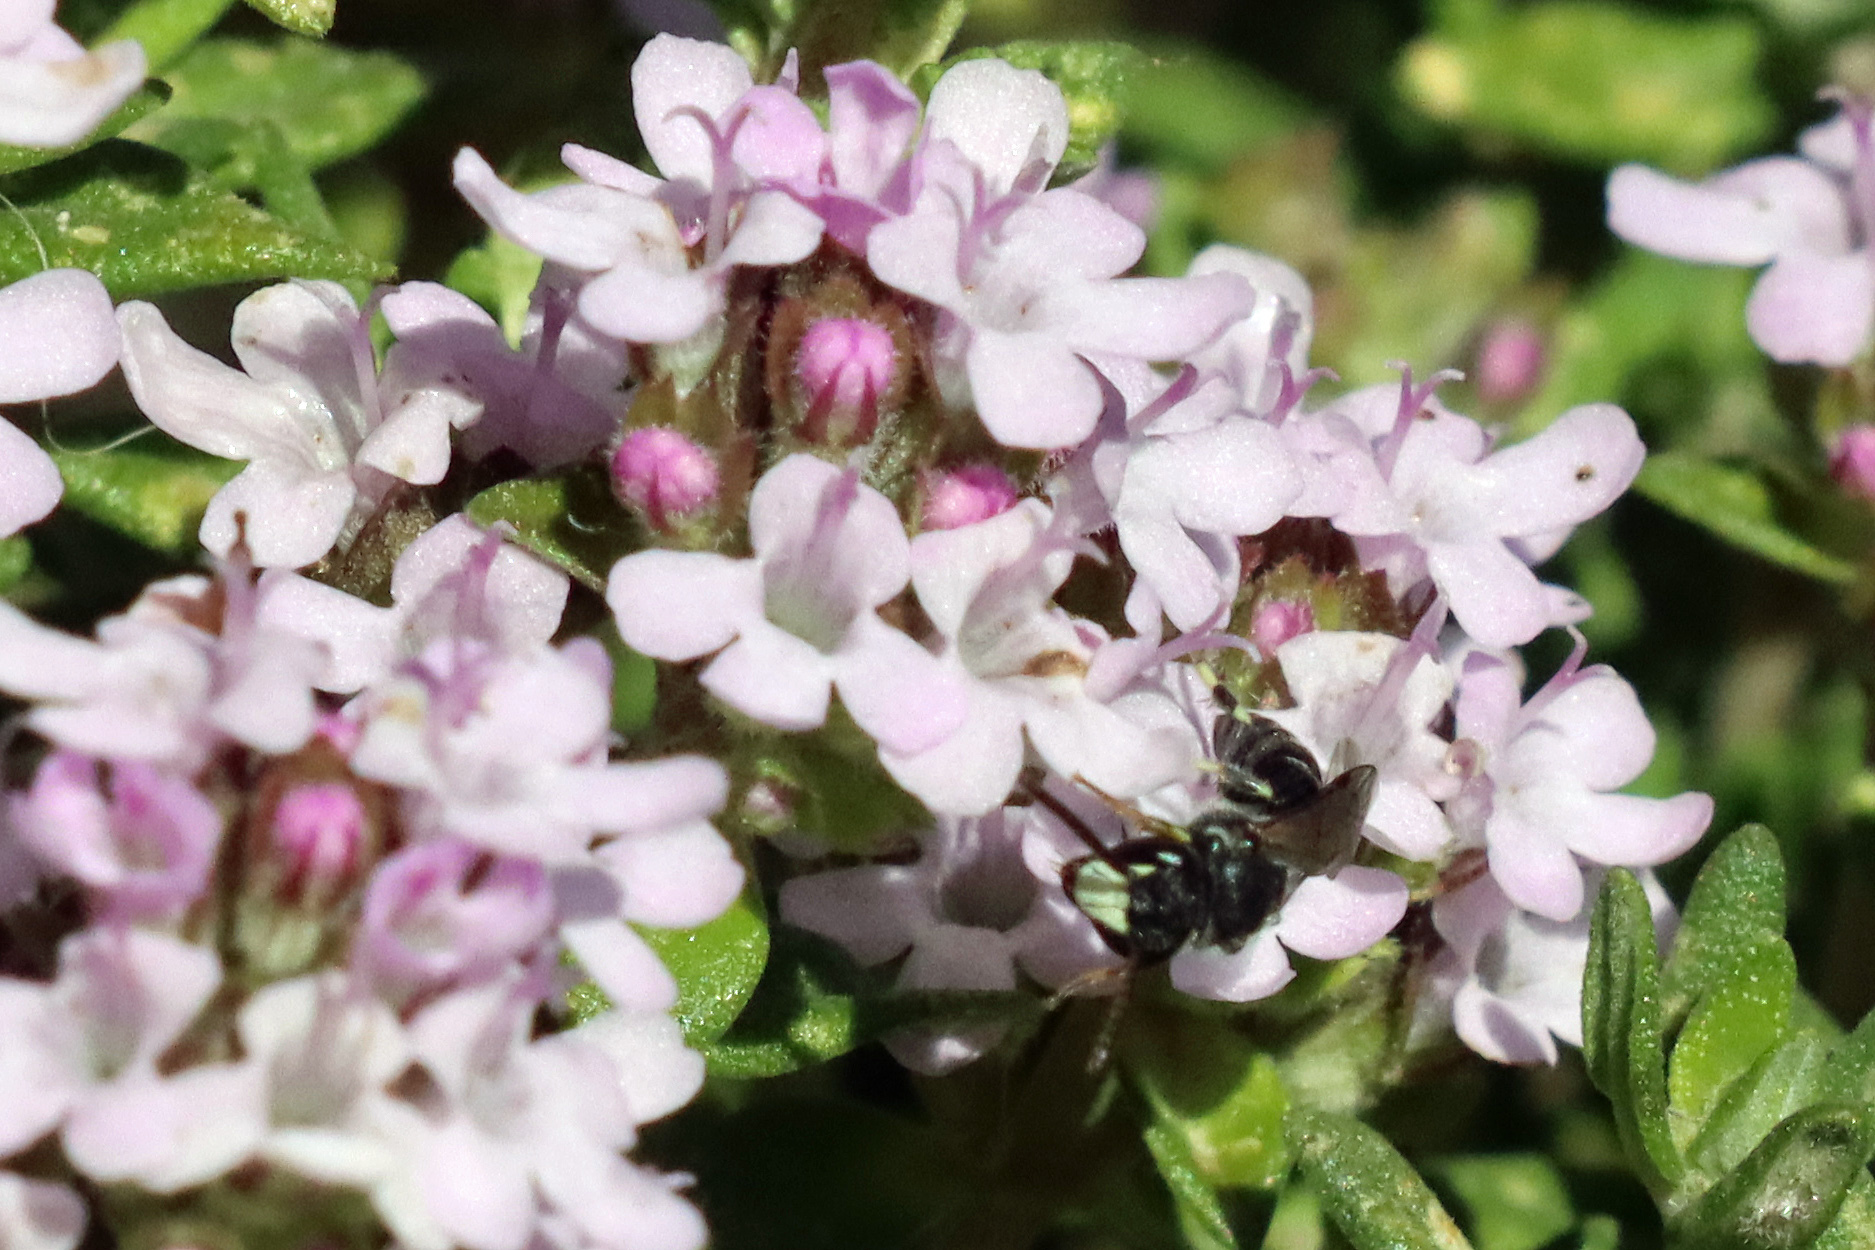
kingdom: Animalia
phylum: Arthropoda
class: Insecta
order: Hymenoptera
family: Colletidae
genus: Hylaeus
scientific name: Hylaeus hyalinatus
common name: Hyaline masked bee
